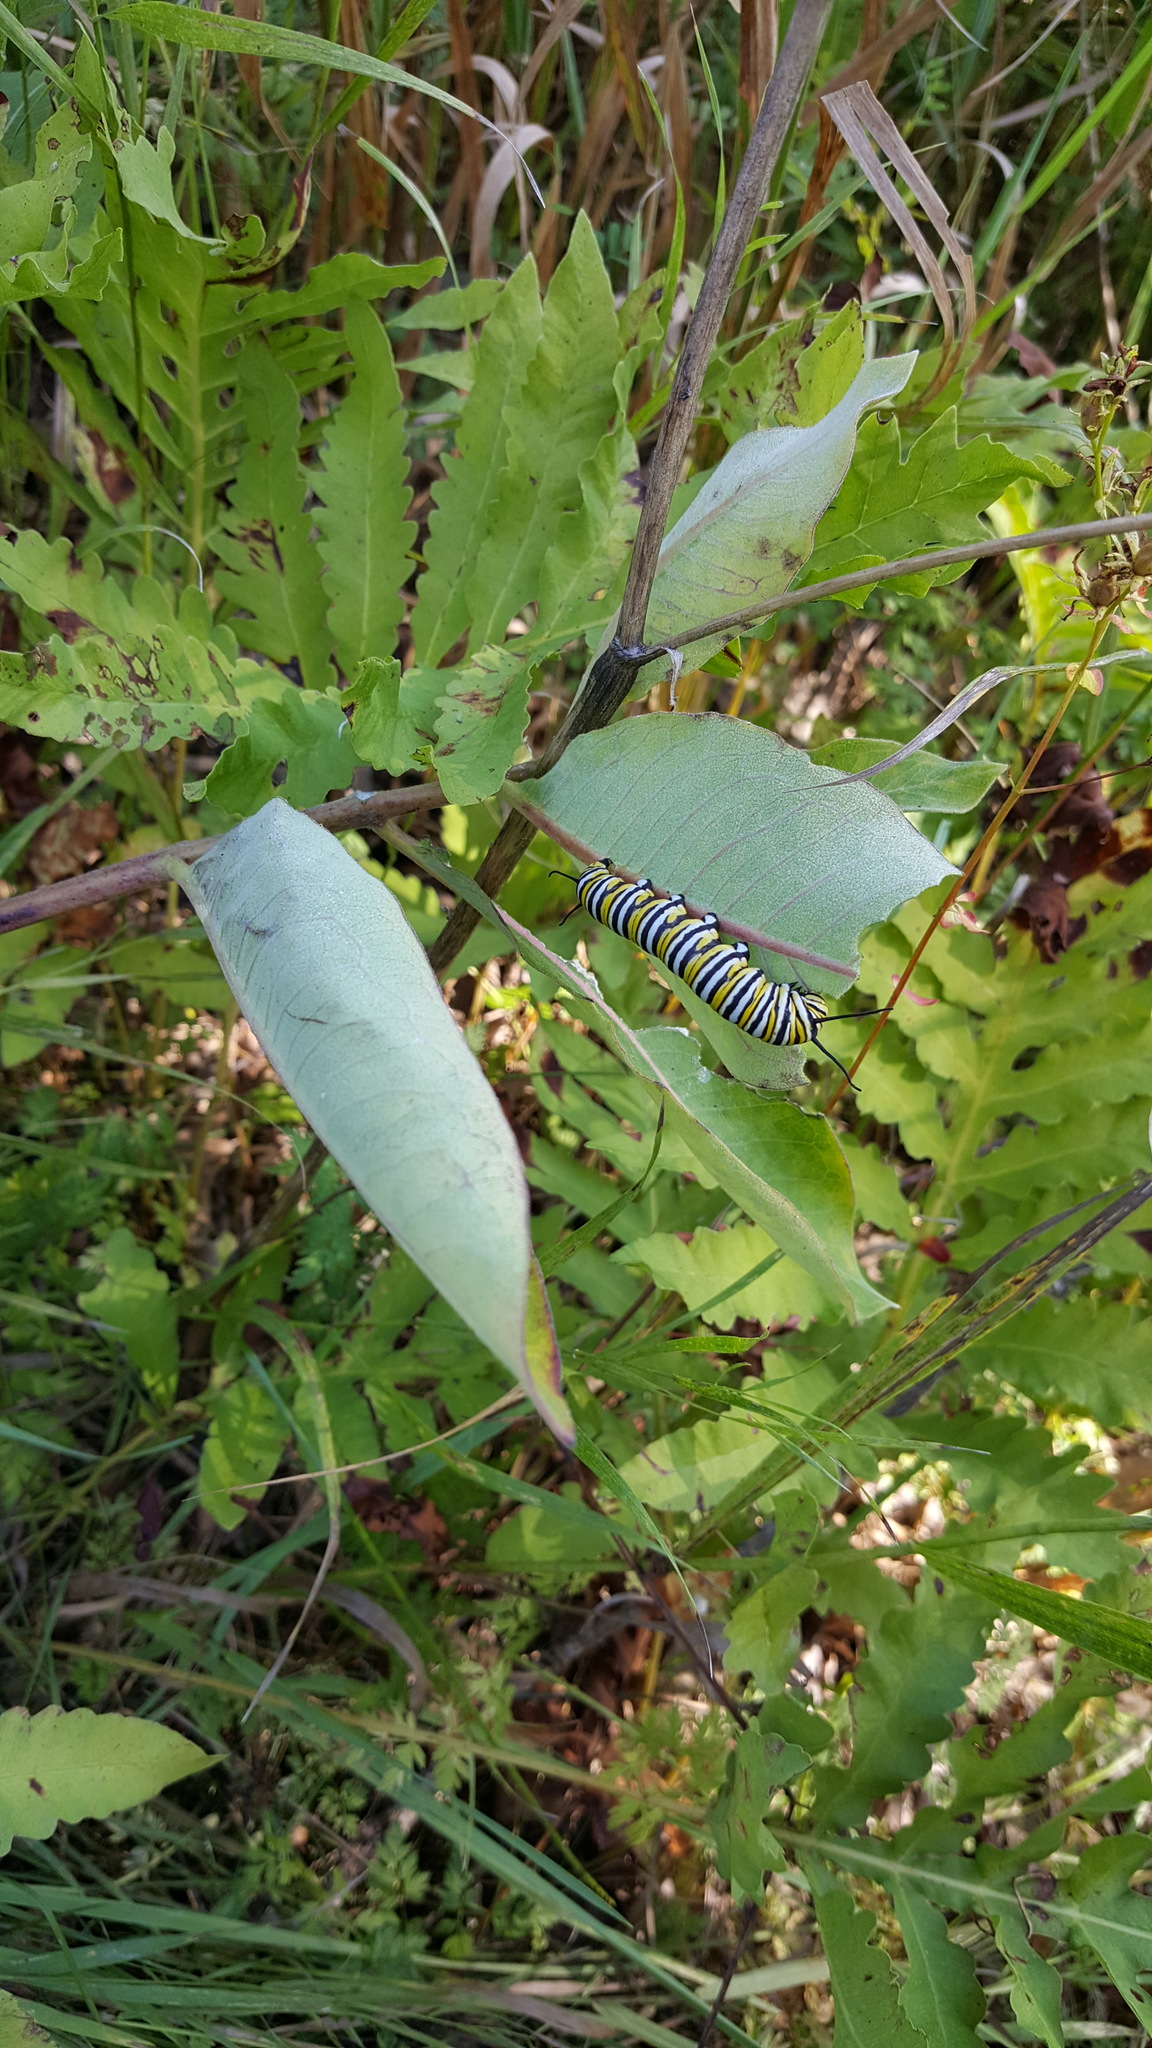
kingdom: Plantae
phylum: Tracheophyta
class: Polypodiopsida
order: Polypodiales
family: Onocleaceae
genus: Onoclea
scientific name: Onoclea sensibilis
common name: Sensitive fern
